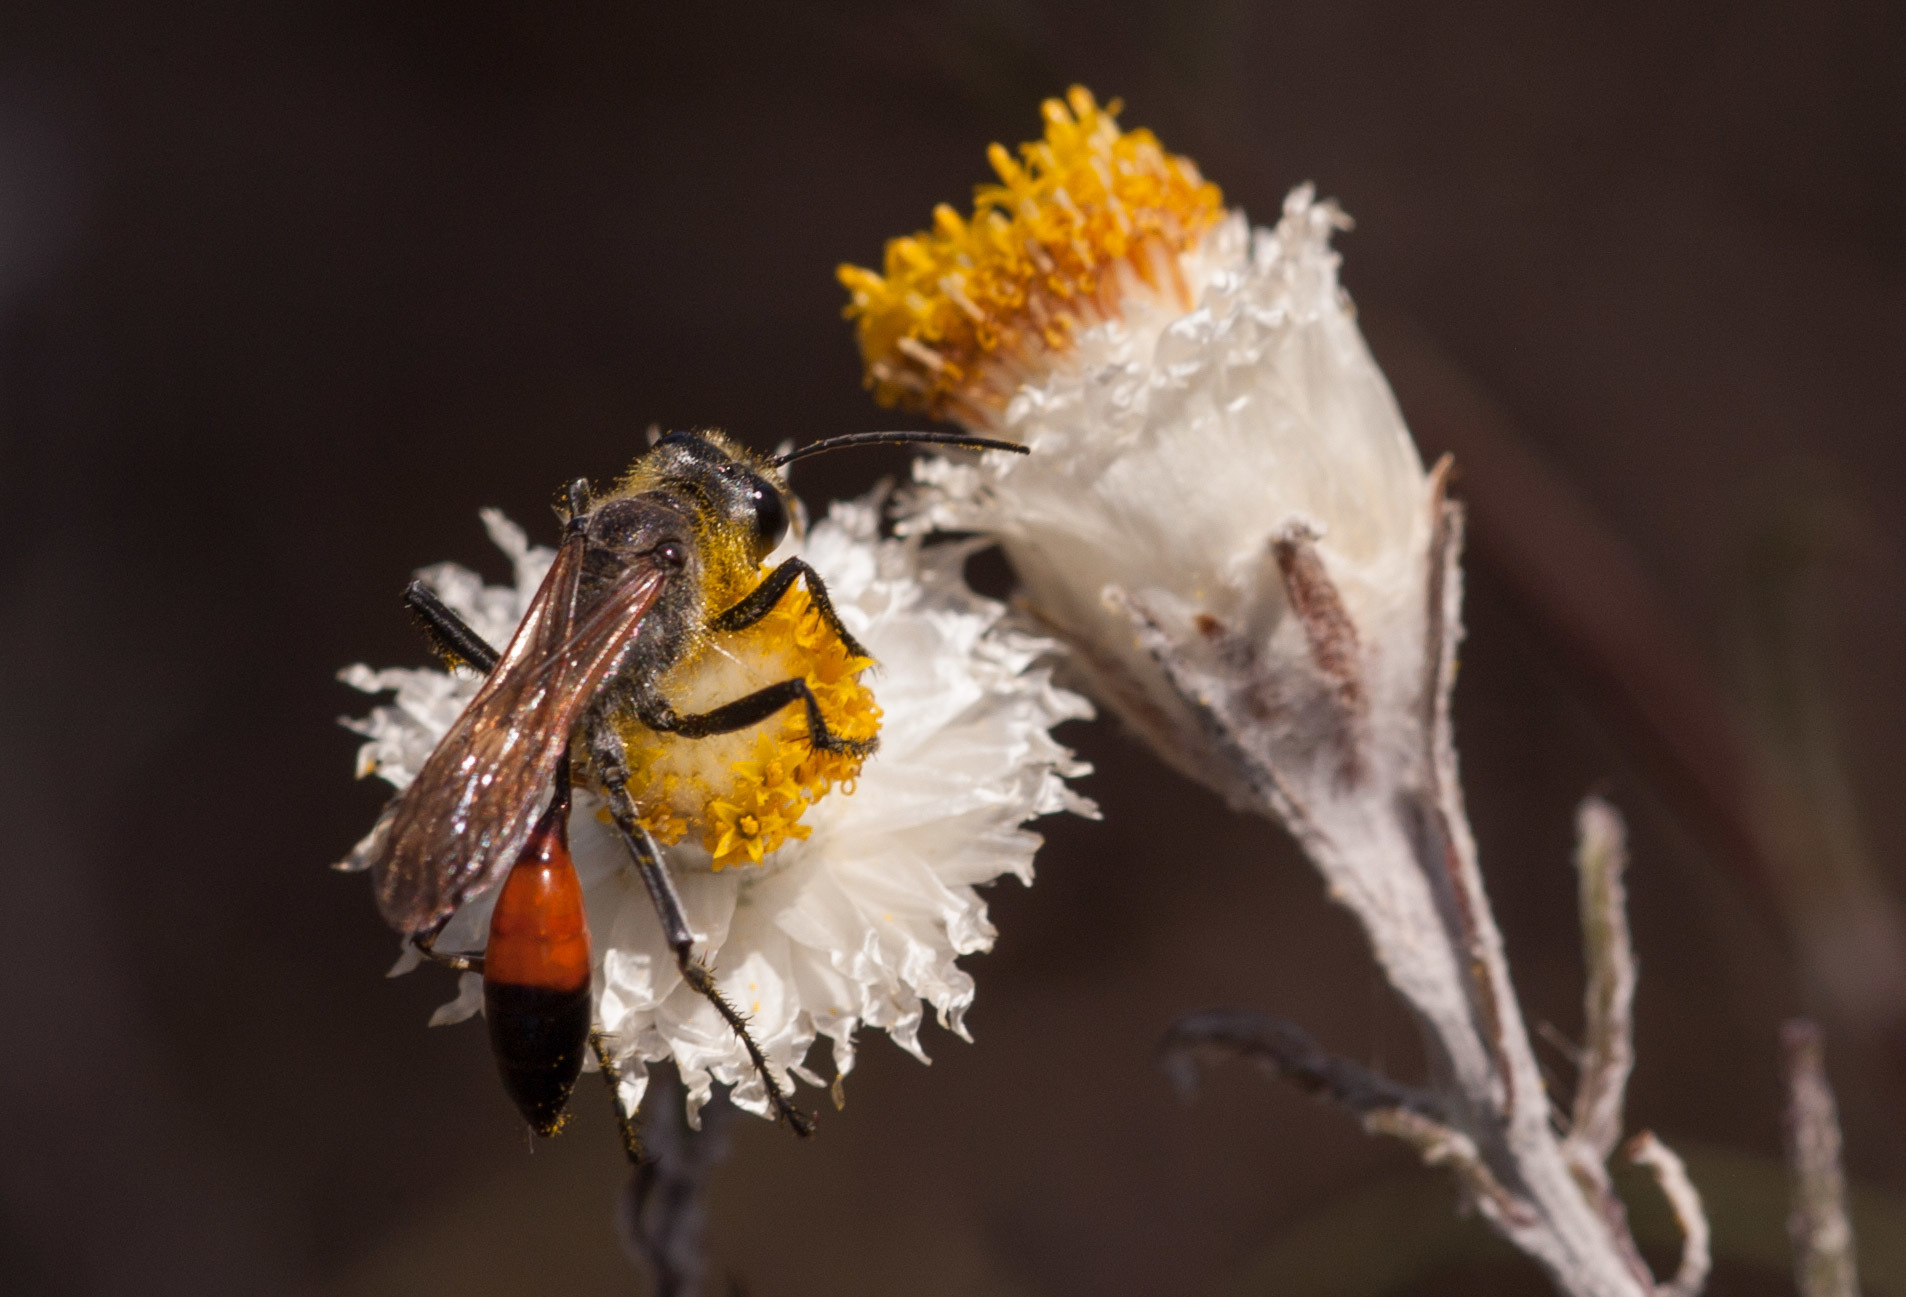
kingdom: Animalia
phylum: Arthropoda
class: Insecta
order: Hymenoptera
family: Sphecidae
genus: Podalonia
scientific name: Podalonia tydei
